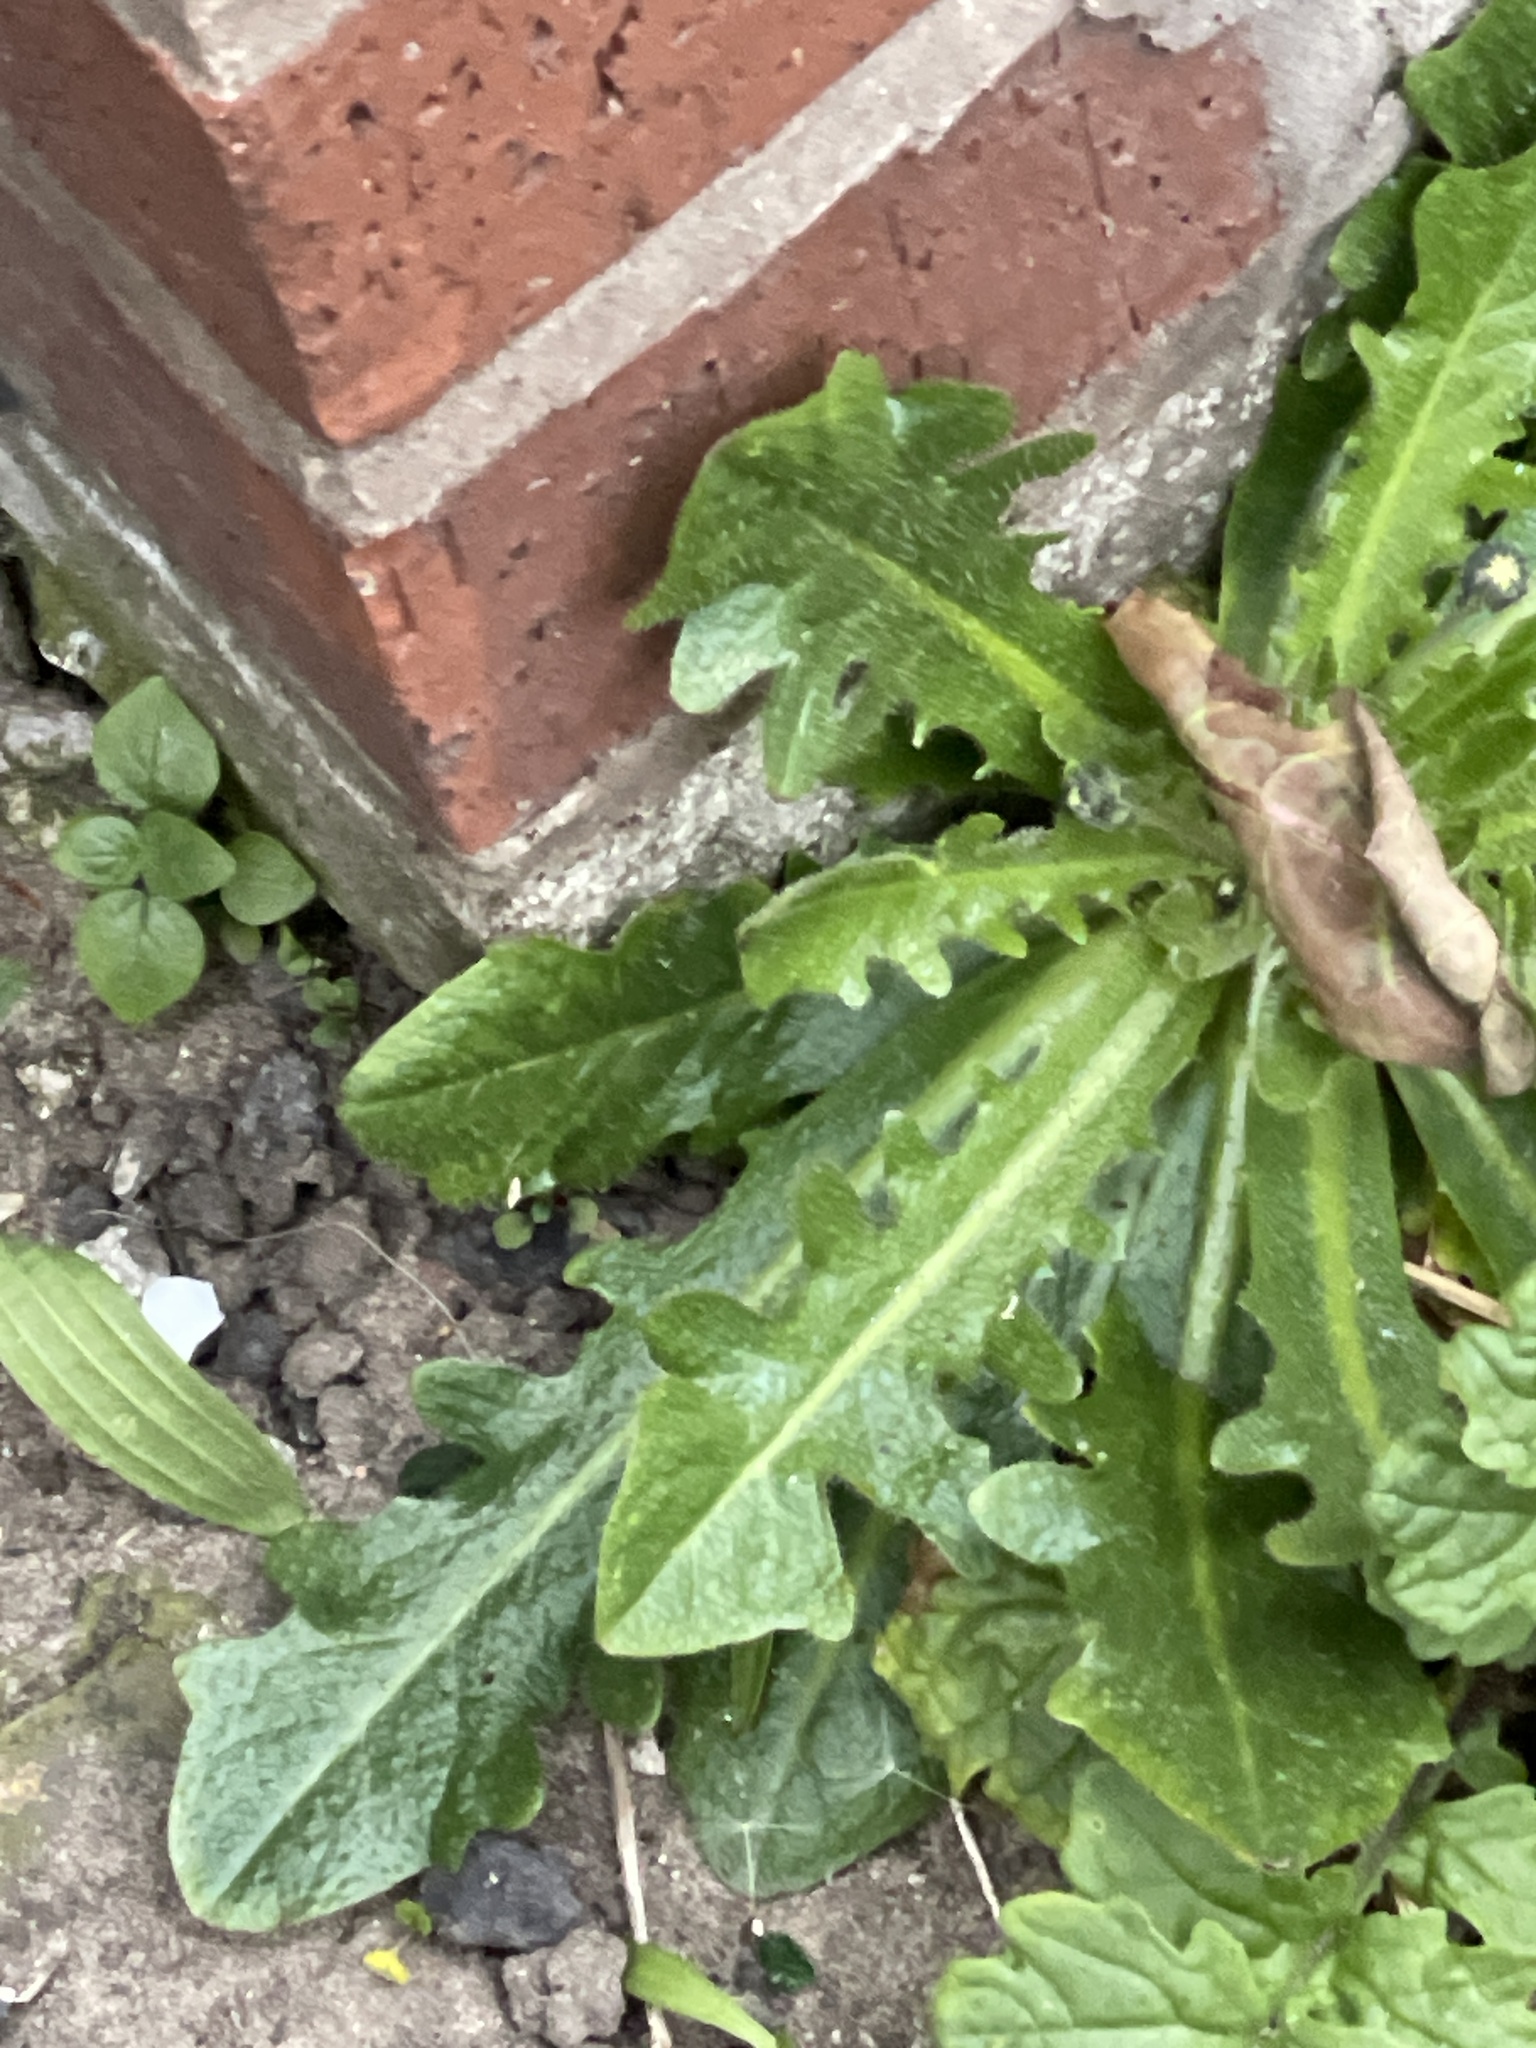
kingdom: Plantae
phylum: Tracheophyta
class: Magnoliopsida
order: Asterales
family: Asteraceae
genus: Hypochaeris
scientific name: Hypochaeris radicata
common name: Flatweed
